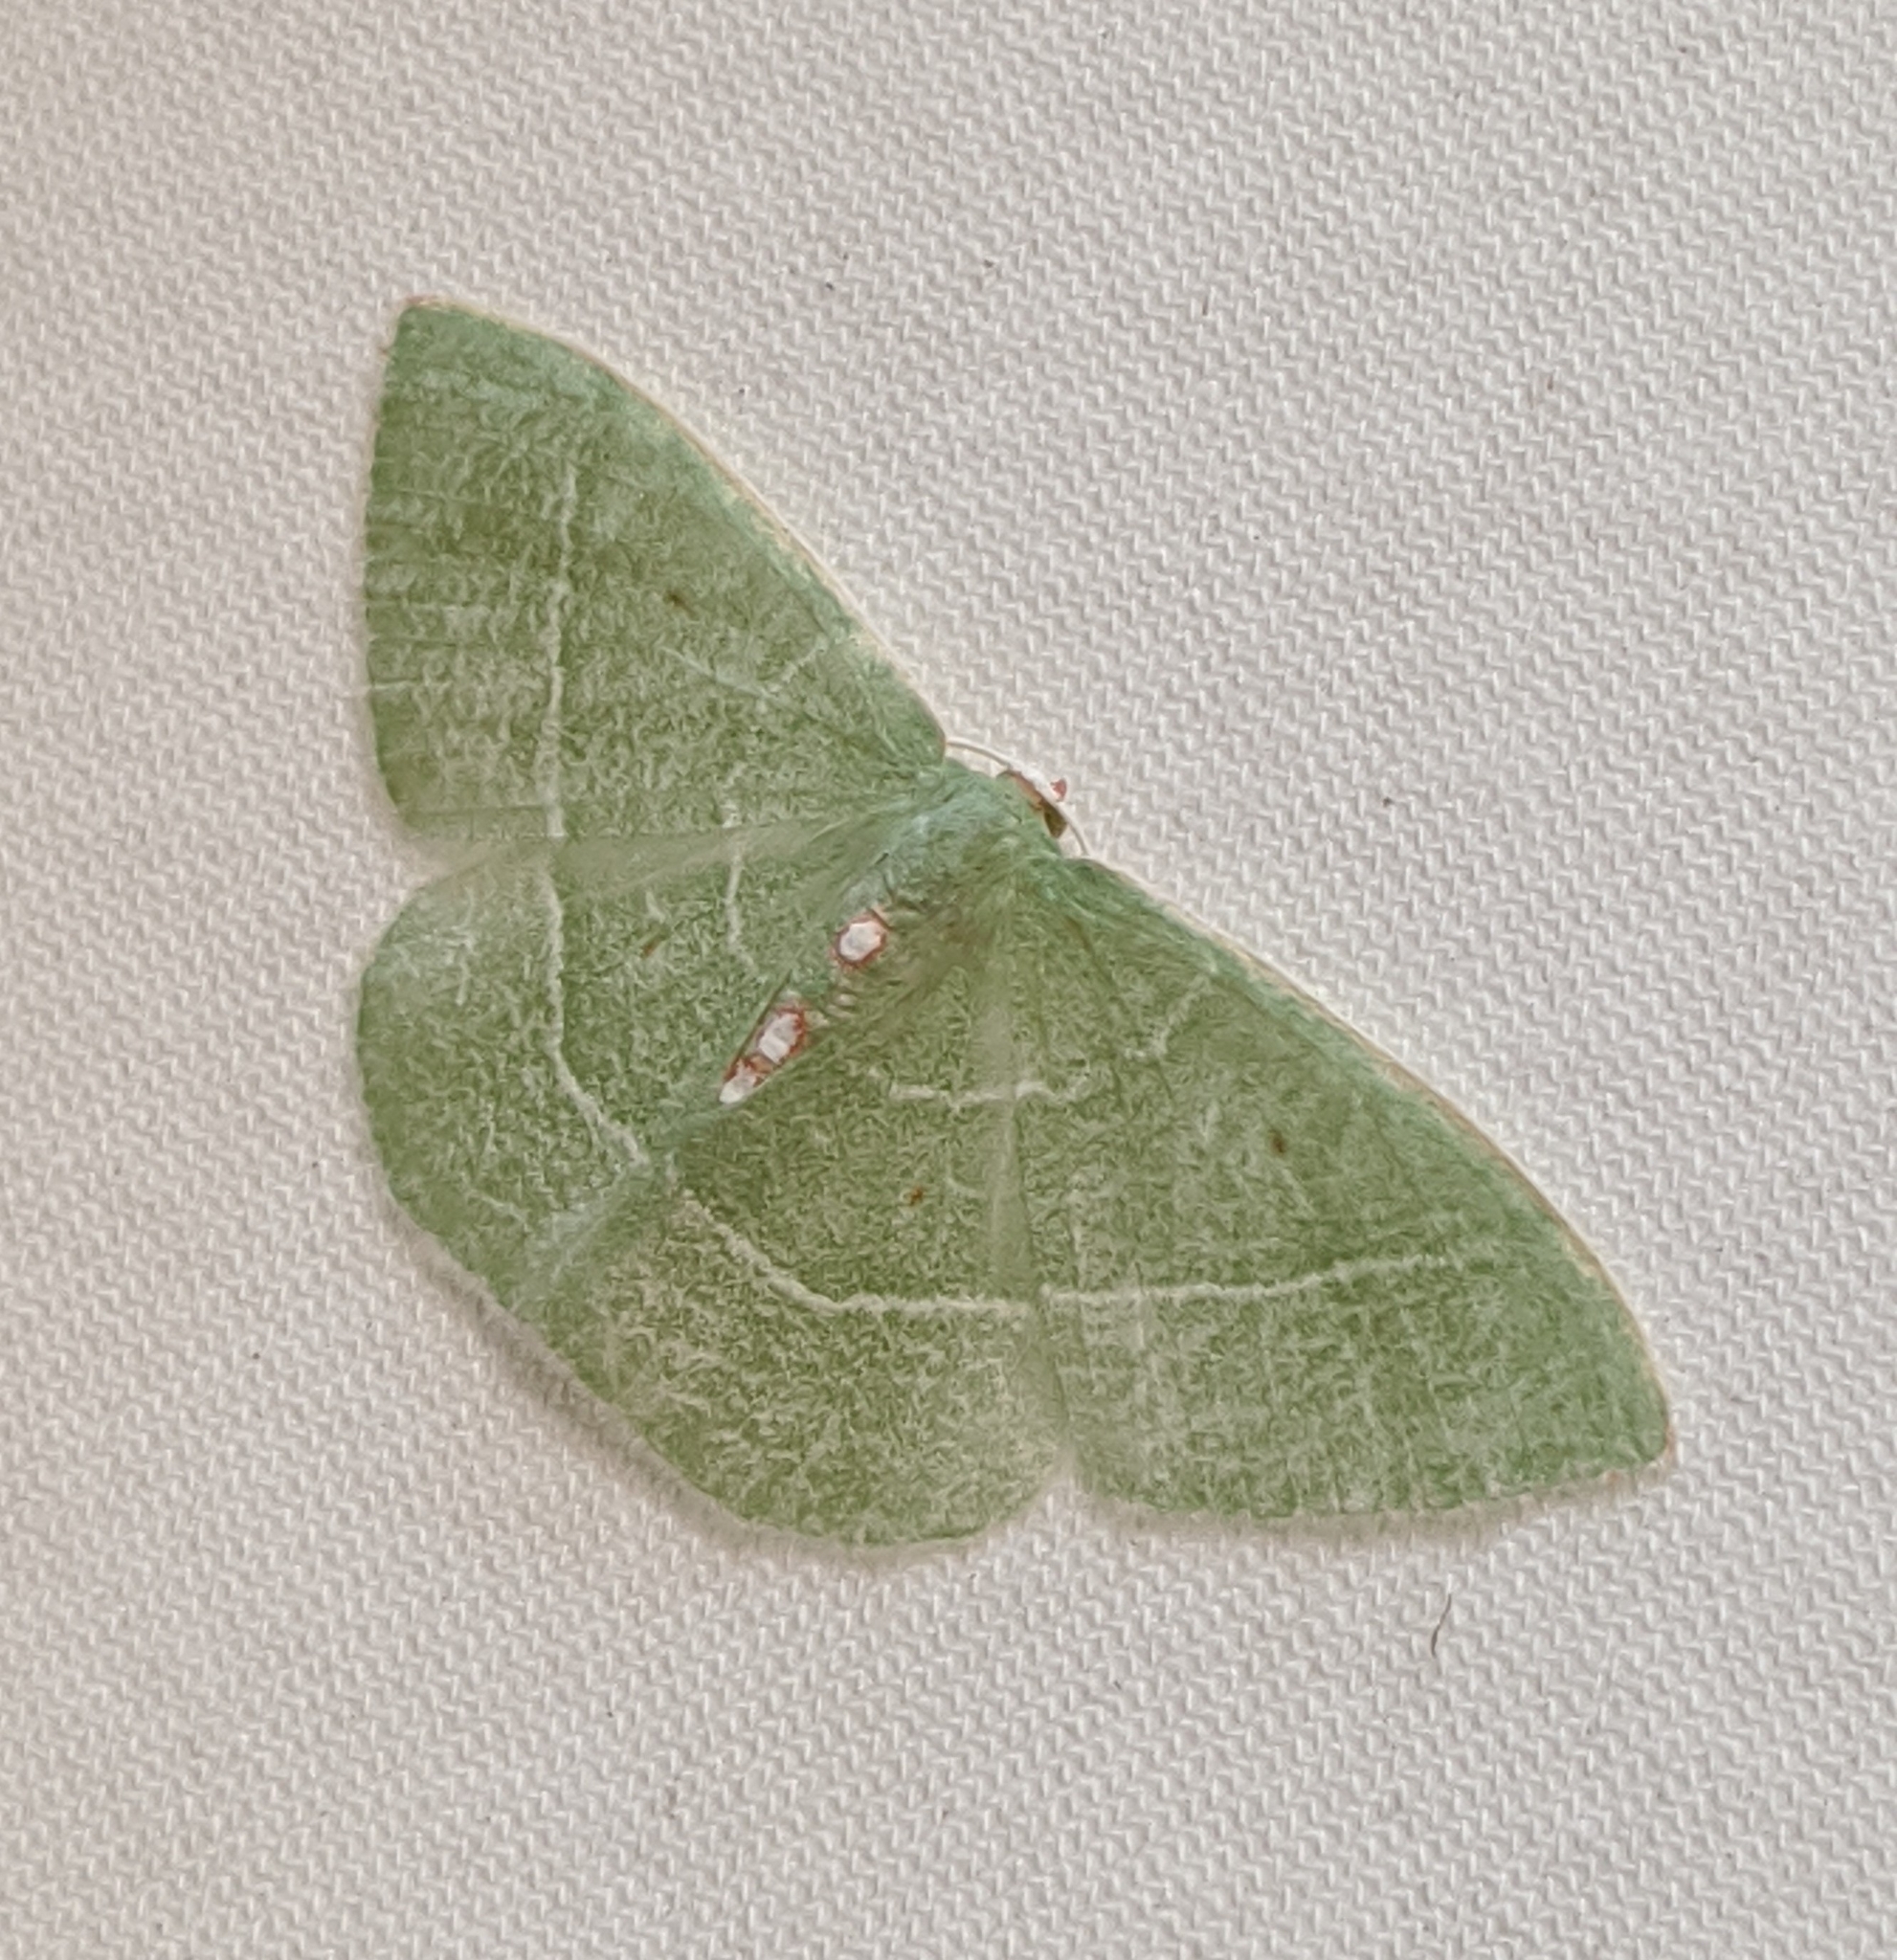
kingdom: Animalia
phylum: Arthropoda
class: Insecta
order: Lepidoptera
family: Geometridae
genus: Nemoria
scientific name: Nemoria darwiniata
